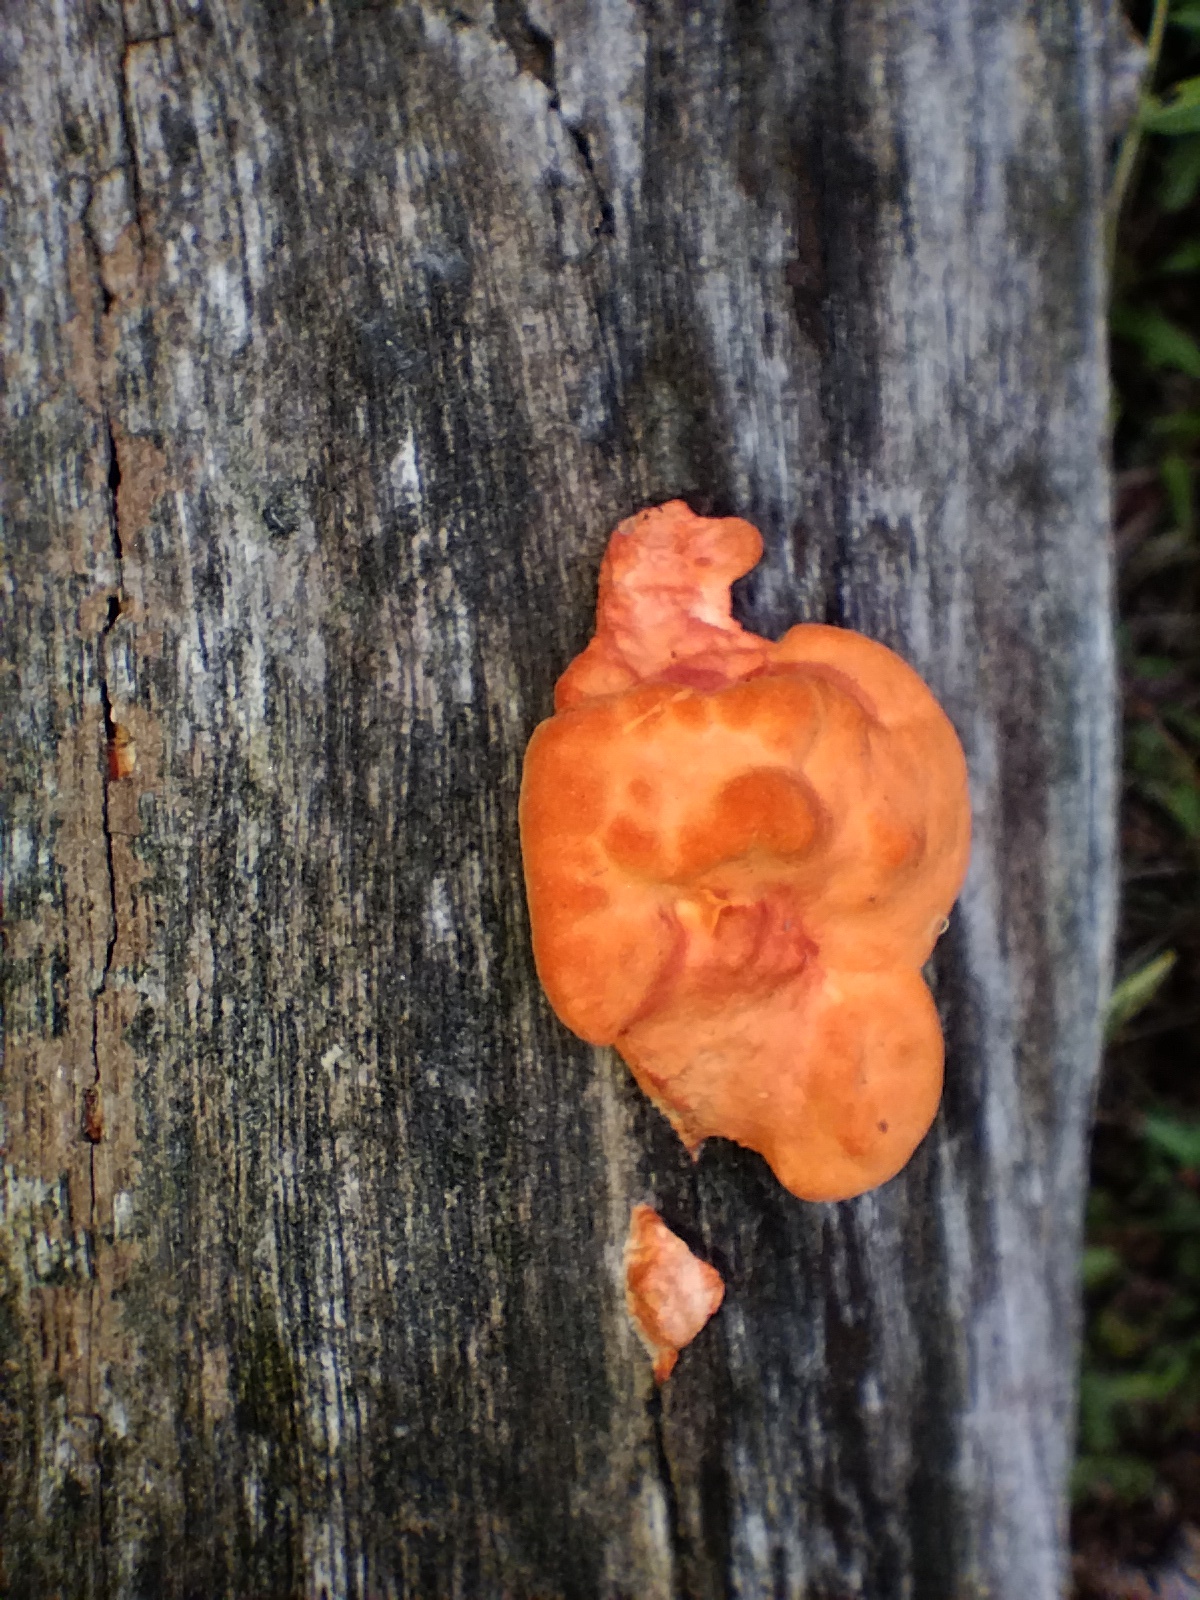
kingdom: Fungi
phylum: Basidiomycota
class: Agaricomycetes
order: Polyporales
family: Polyporaceae
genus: Trametes
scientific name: Trametes coccinea
